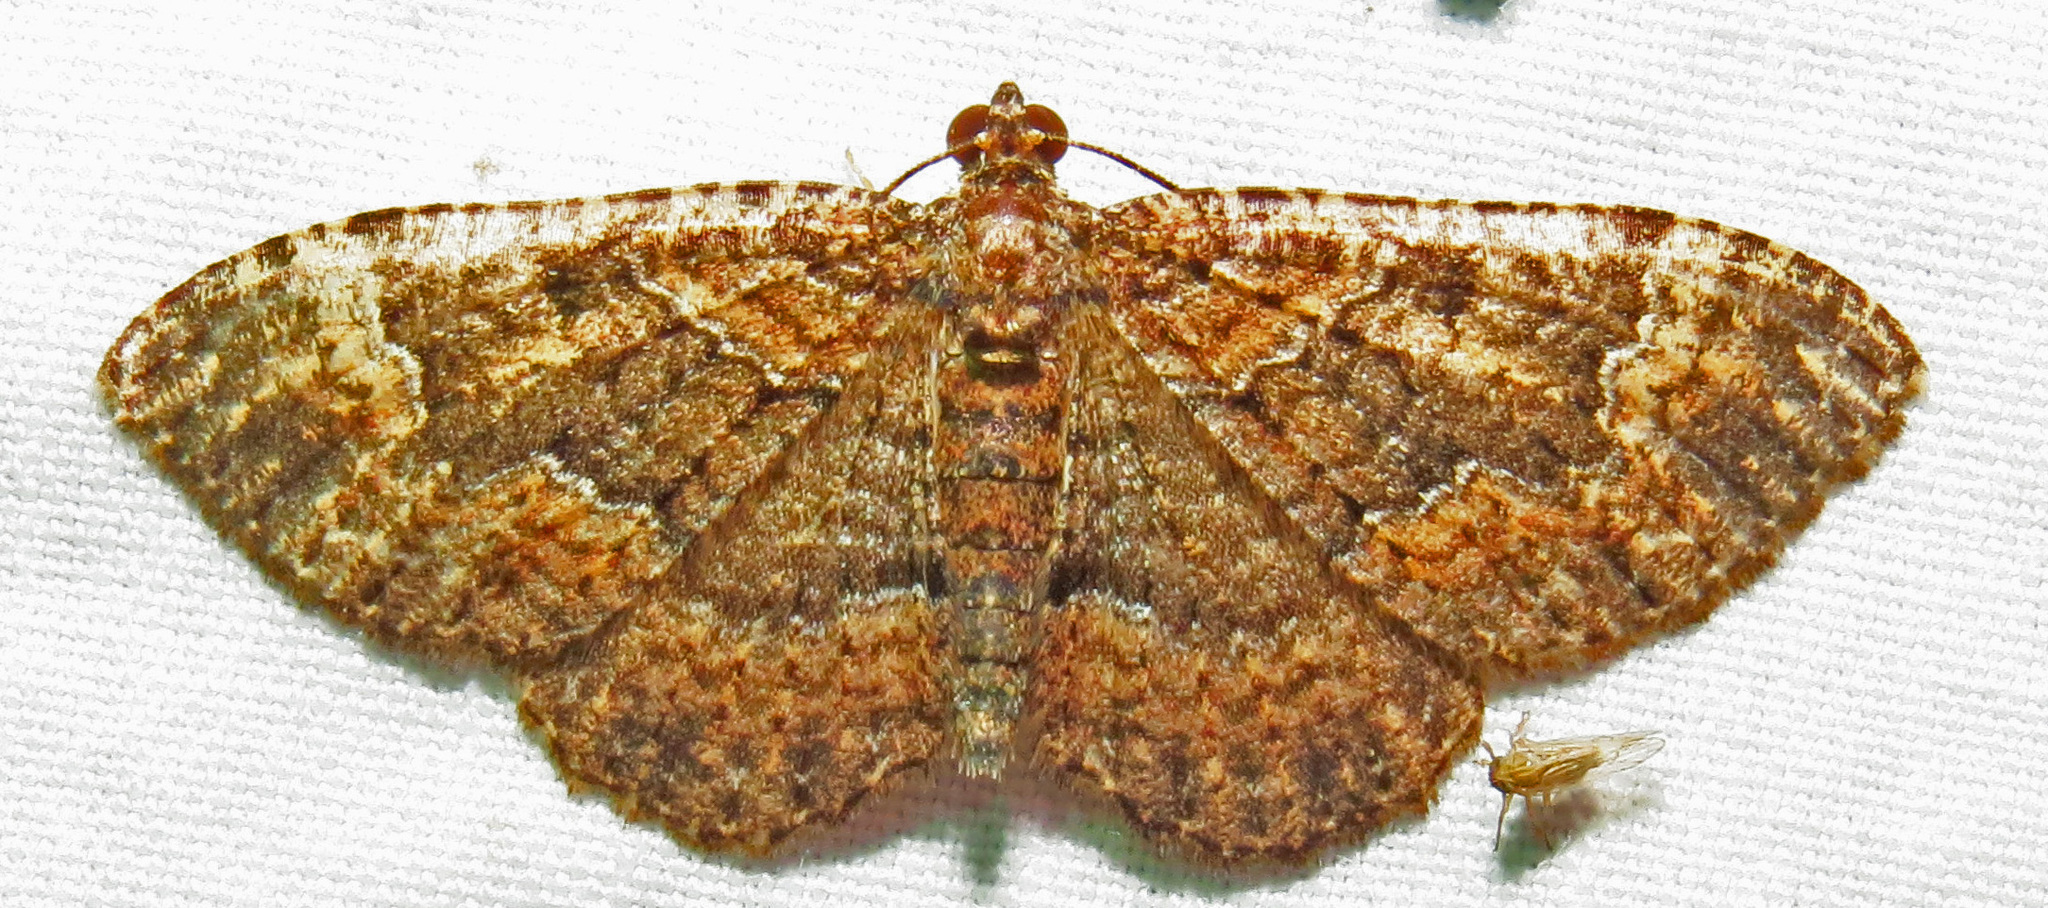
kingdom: Animalia
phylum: Arthropoda
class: Insecta
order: Lepidoptera
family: Geometridae
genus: Disclisioprocta
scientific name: Disclisioprocta stellata
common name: Somber carpet
